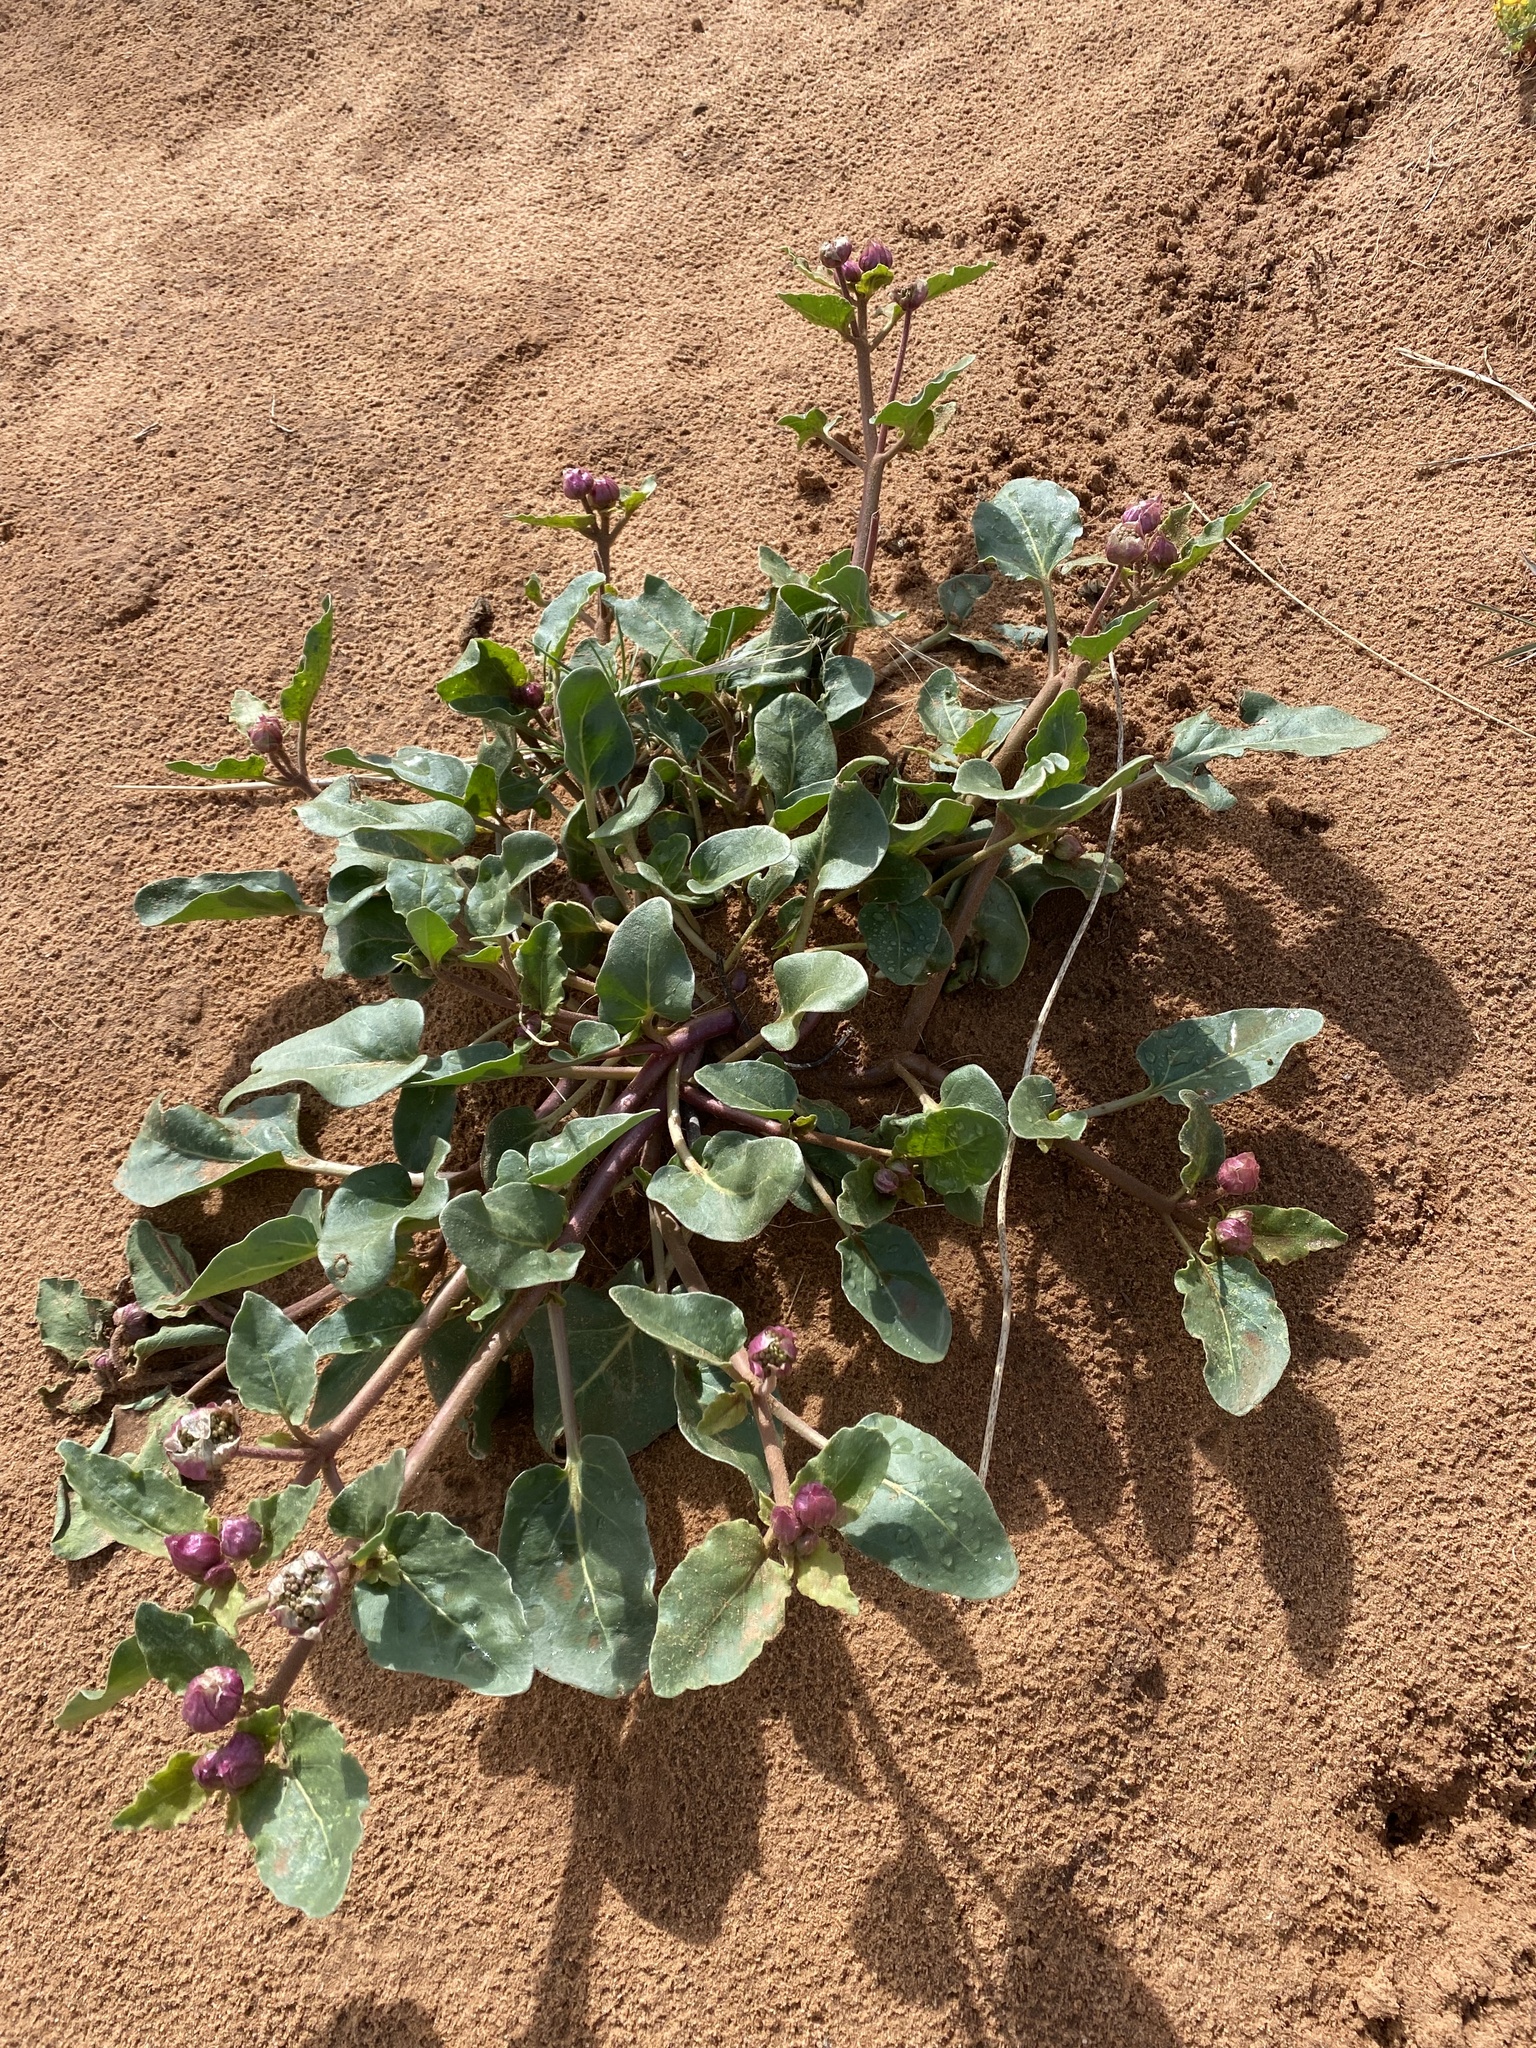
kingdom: Plantae
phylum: Tracheophyta
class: Magnoliopsida
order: Caryophyllales
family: Nyctaginaceae
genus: Abronia
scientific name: Abronia fragrans
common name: Fragrant sand-verbena
